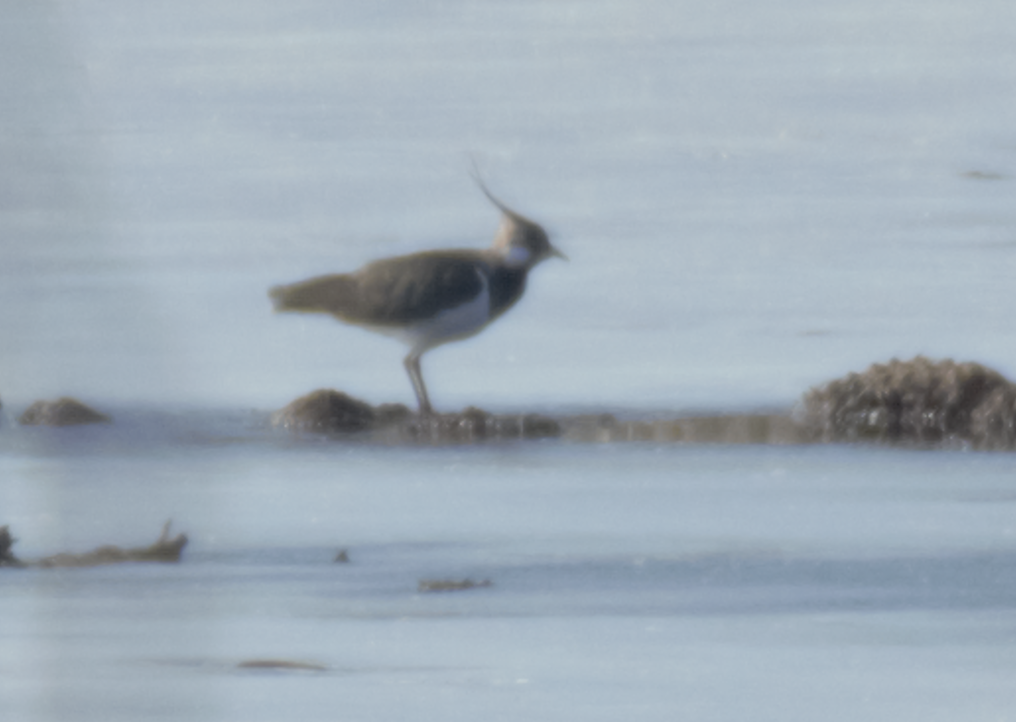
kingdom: Animalia
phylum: Chordata
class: Aves
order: Charadriiformes
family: Charadriidae
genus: Vanellus
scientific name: Vanellus vanellus
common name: Northern lapwing
